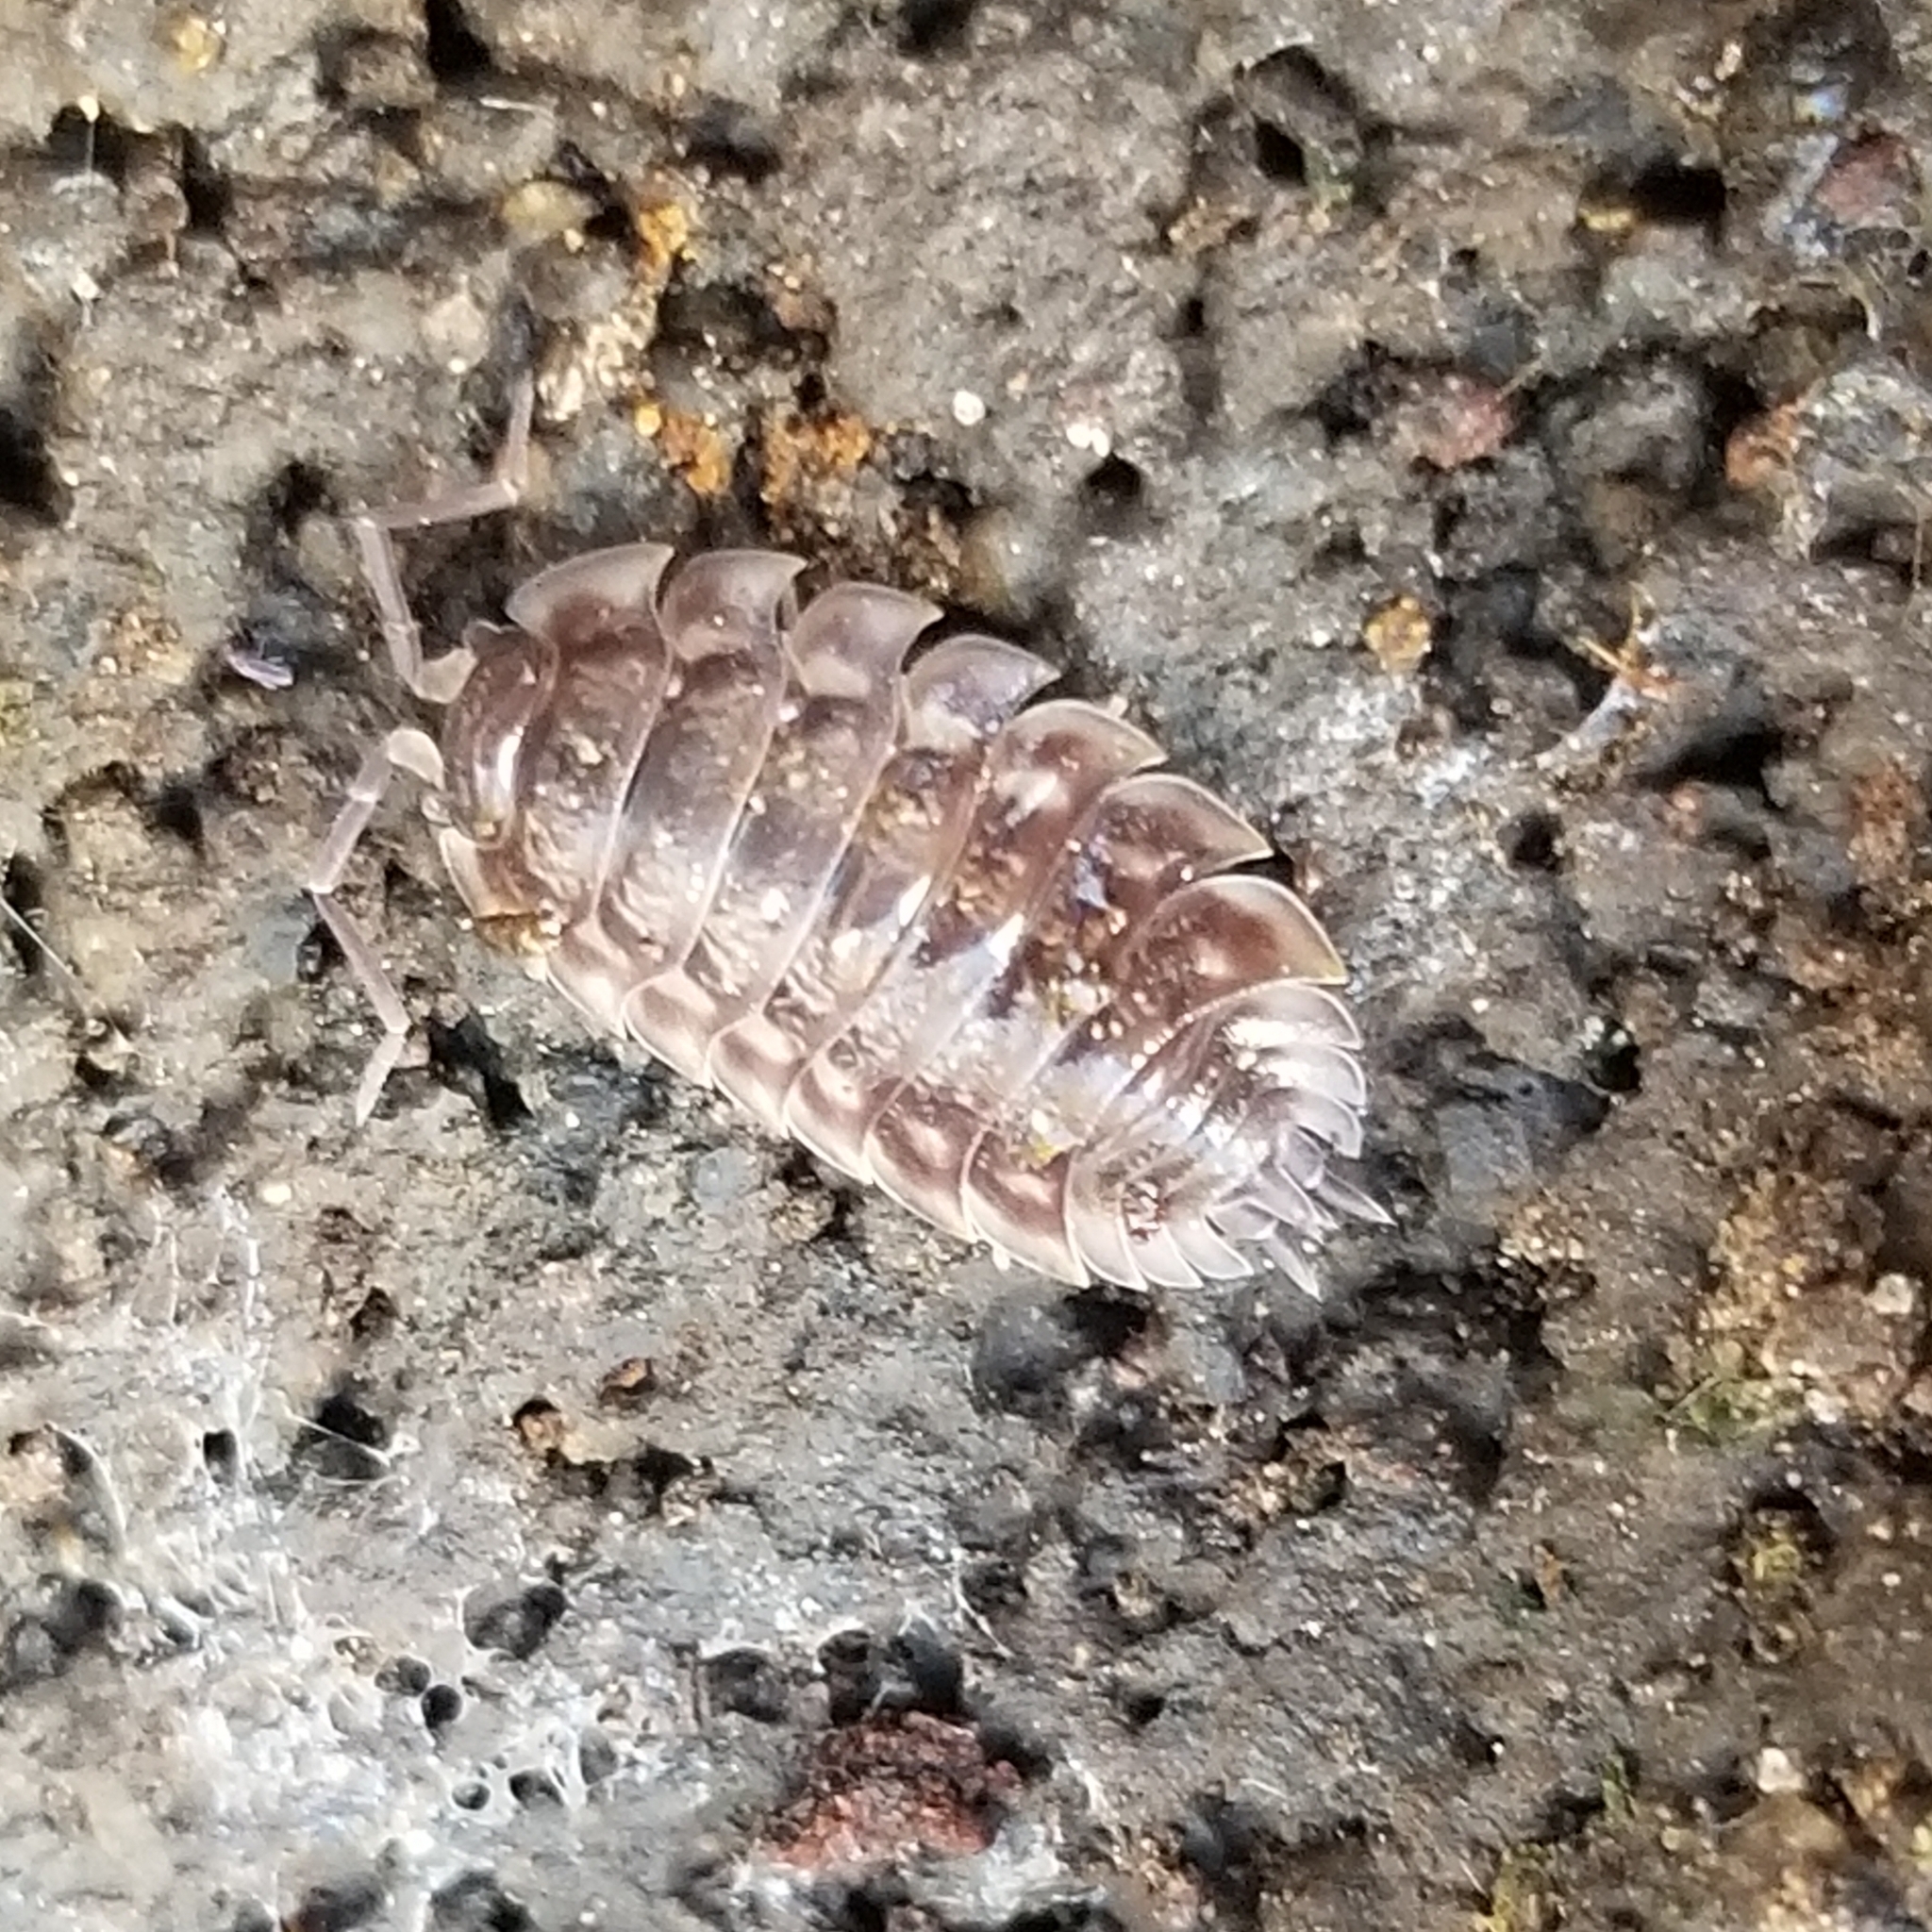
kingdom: Animalia
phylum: Arthropoda
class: Malacostraca
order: Isopoda
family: Oniscidae
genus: Oniscus
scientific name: Oniscus asellus
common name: Common shiny woodlouse
